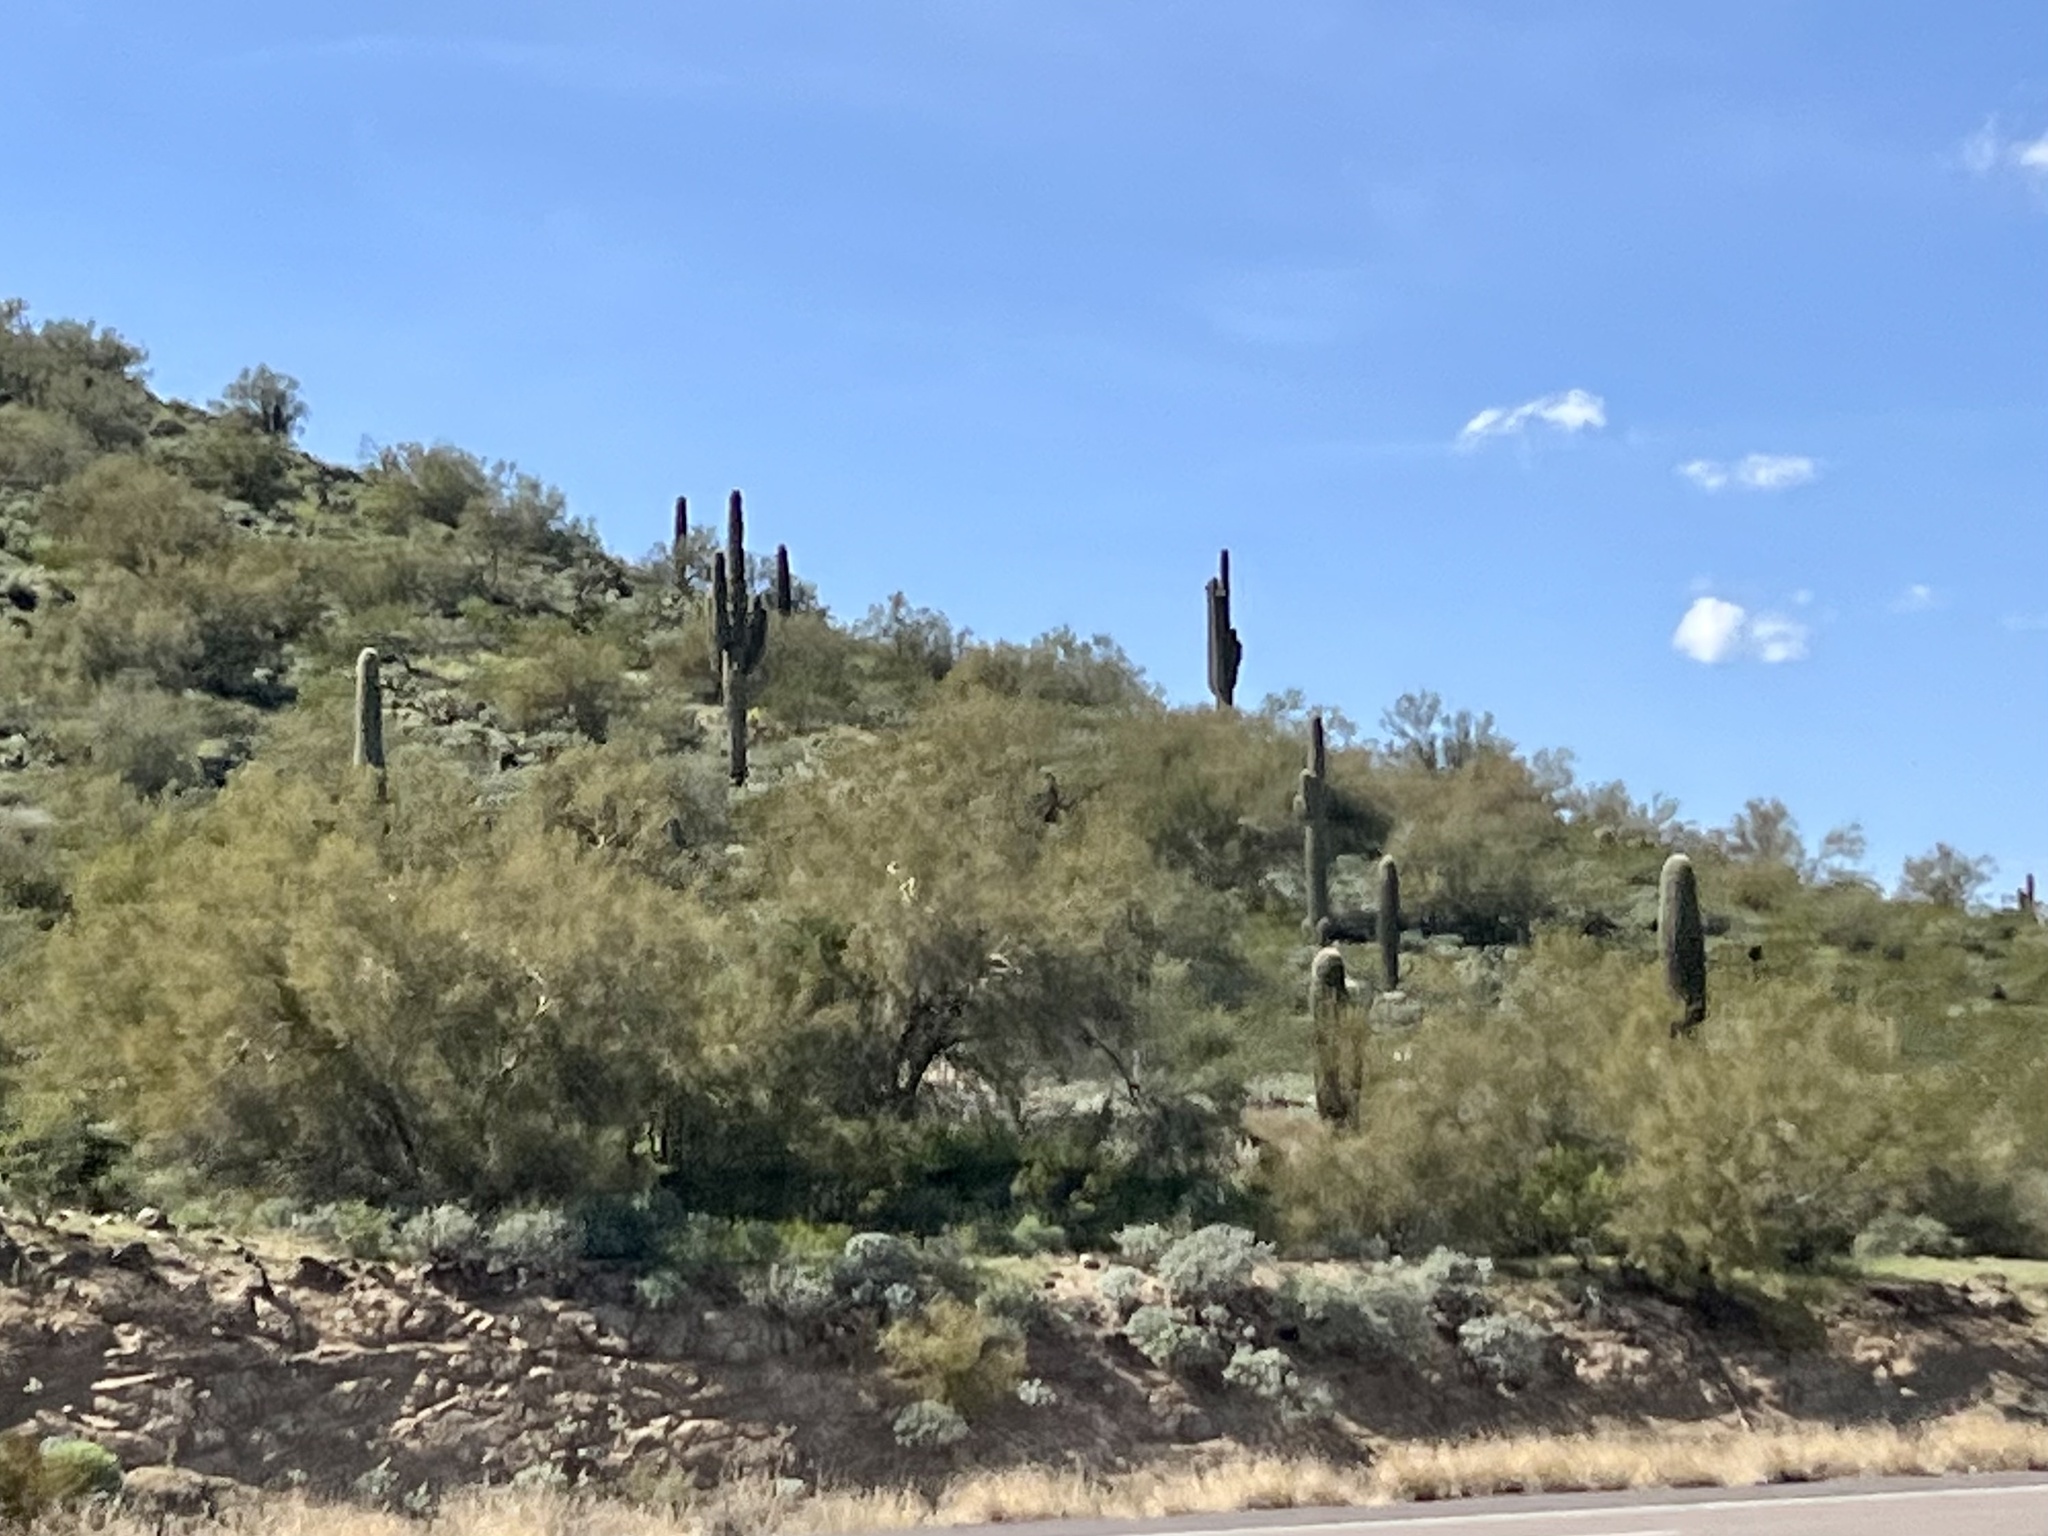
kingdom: Plantae
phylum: Tracheophyta
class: Magnoliopsida
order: Caryophyllales
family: Cactaceae
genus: Carnegiea
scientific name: Carnegiea gigantea
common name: Saguaro
